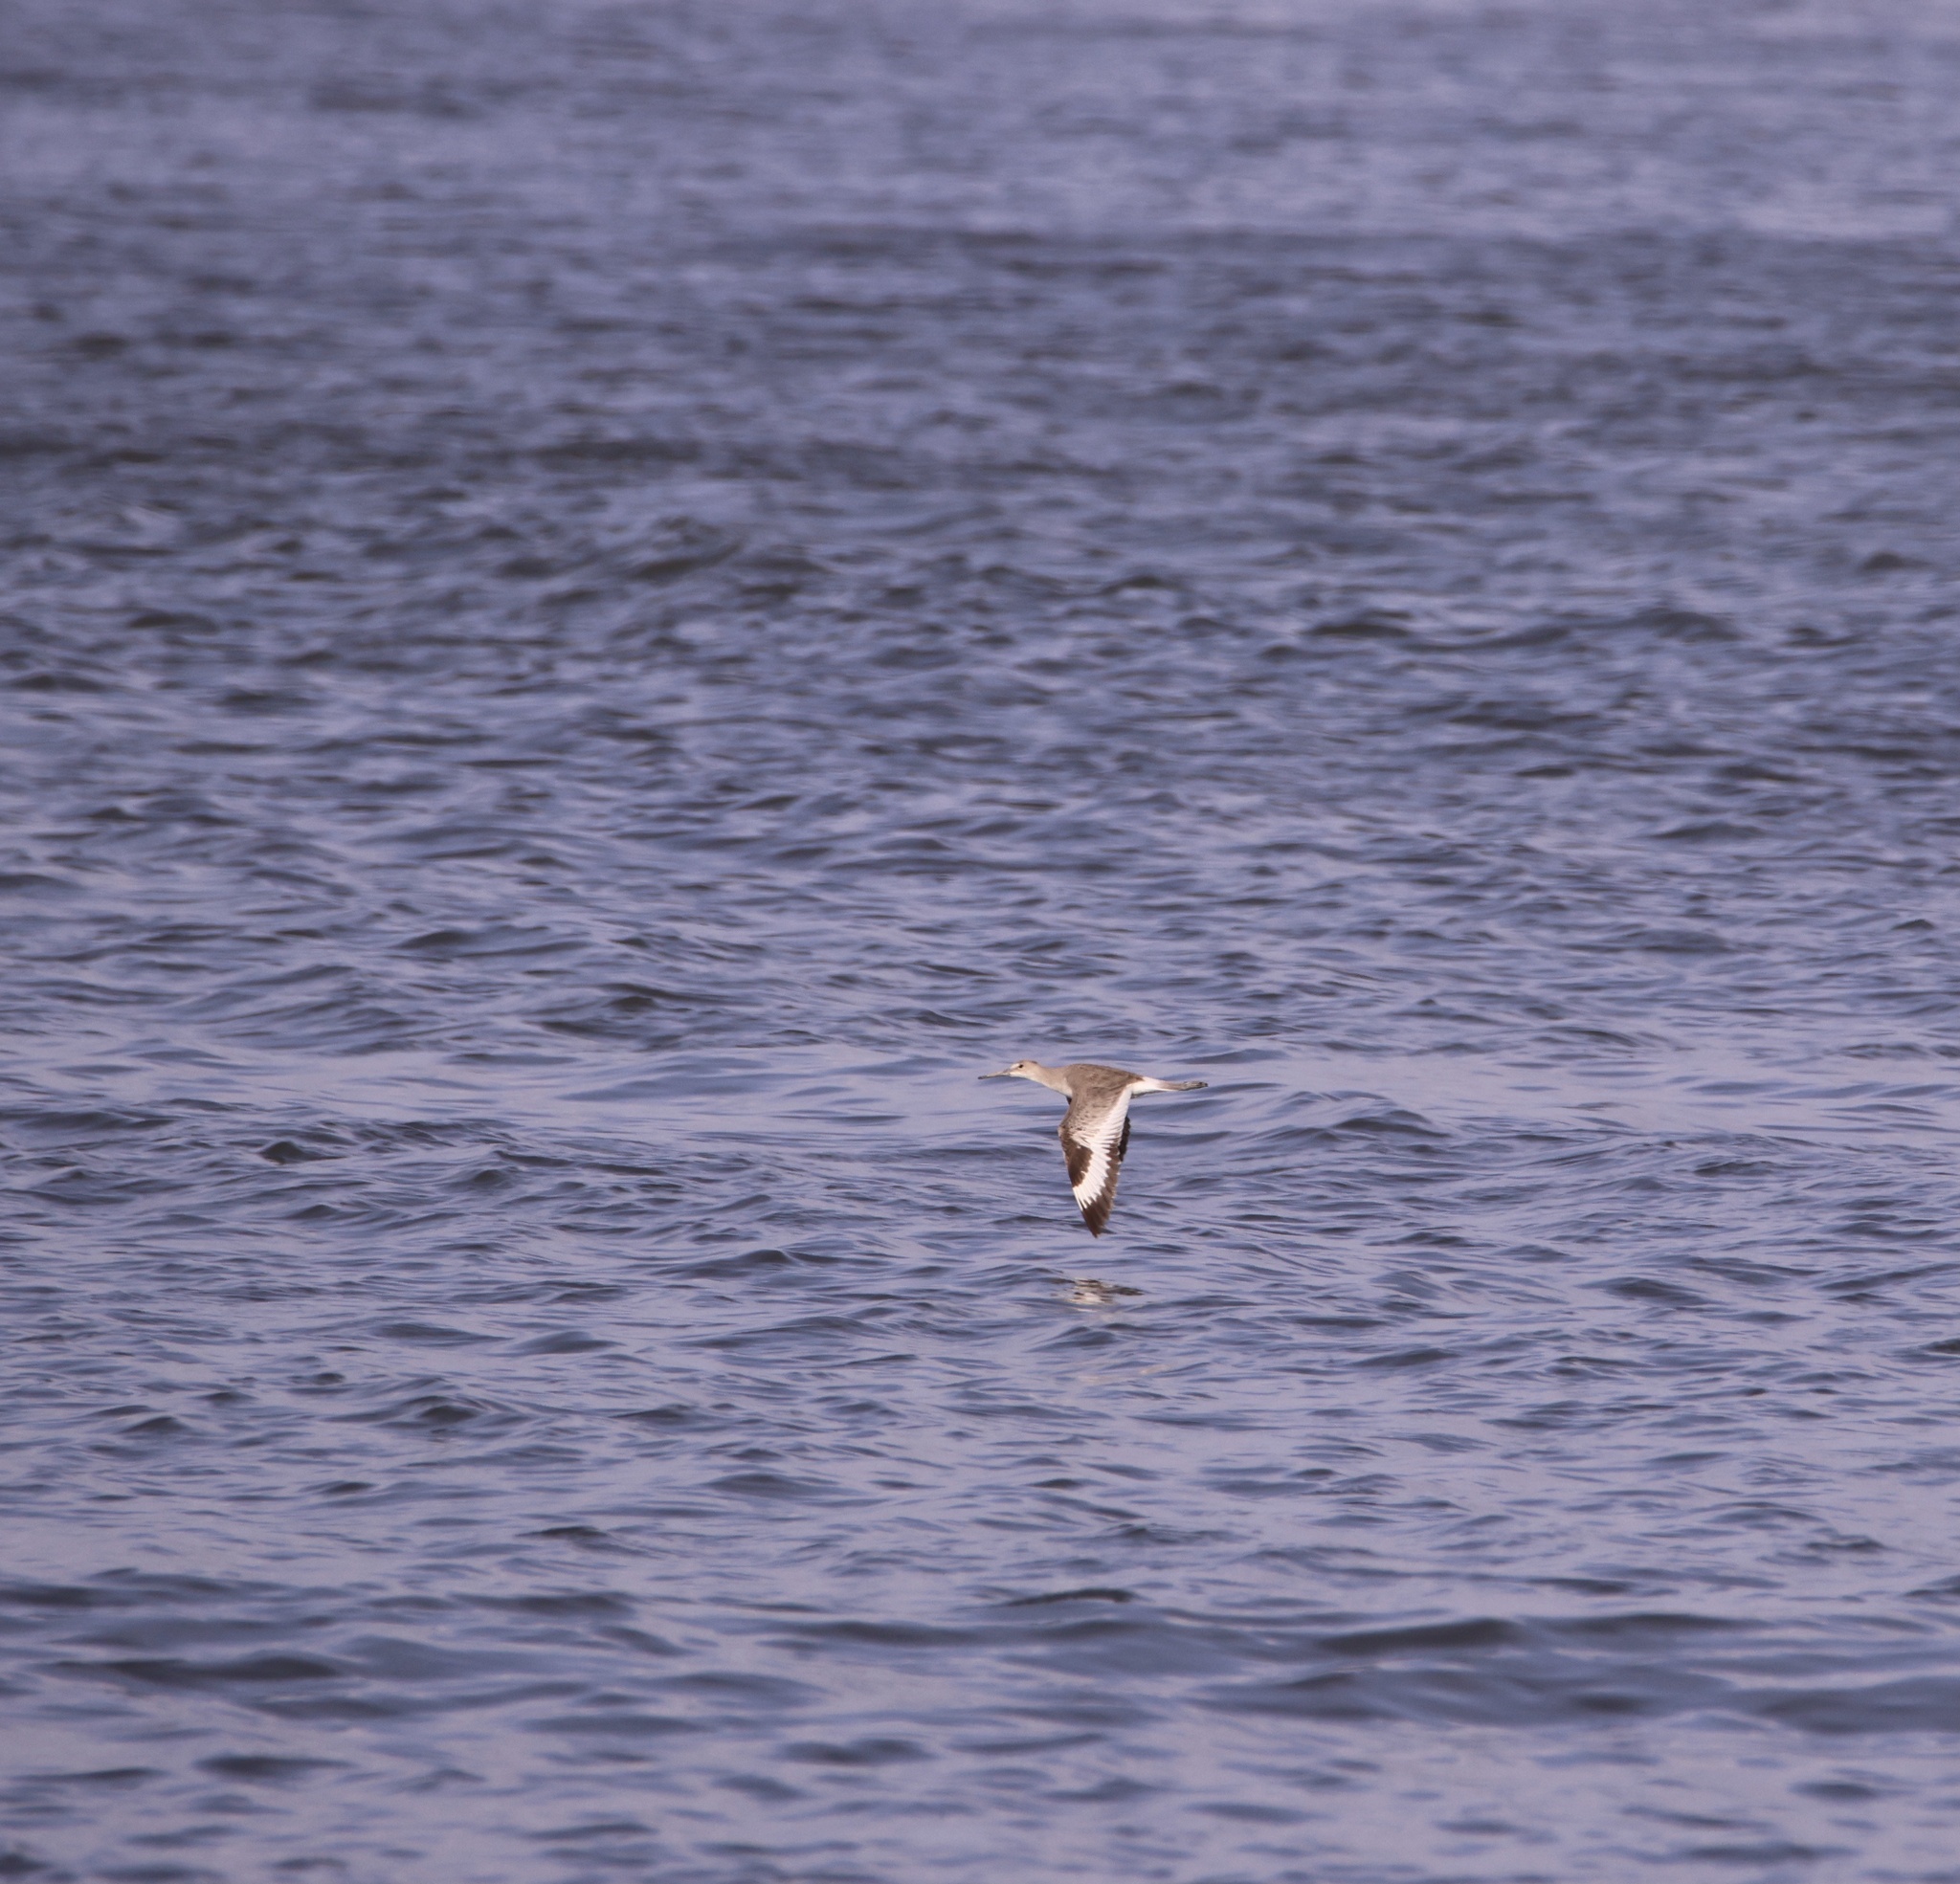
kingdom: Animalia
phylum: Chordata
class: Aves
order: Charadriiformes
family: Scolopacidae
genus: Tringa
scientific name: Tringa semipalmata
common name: Willet
